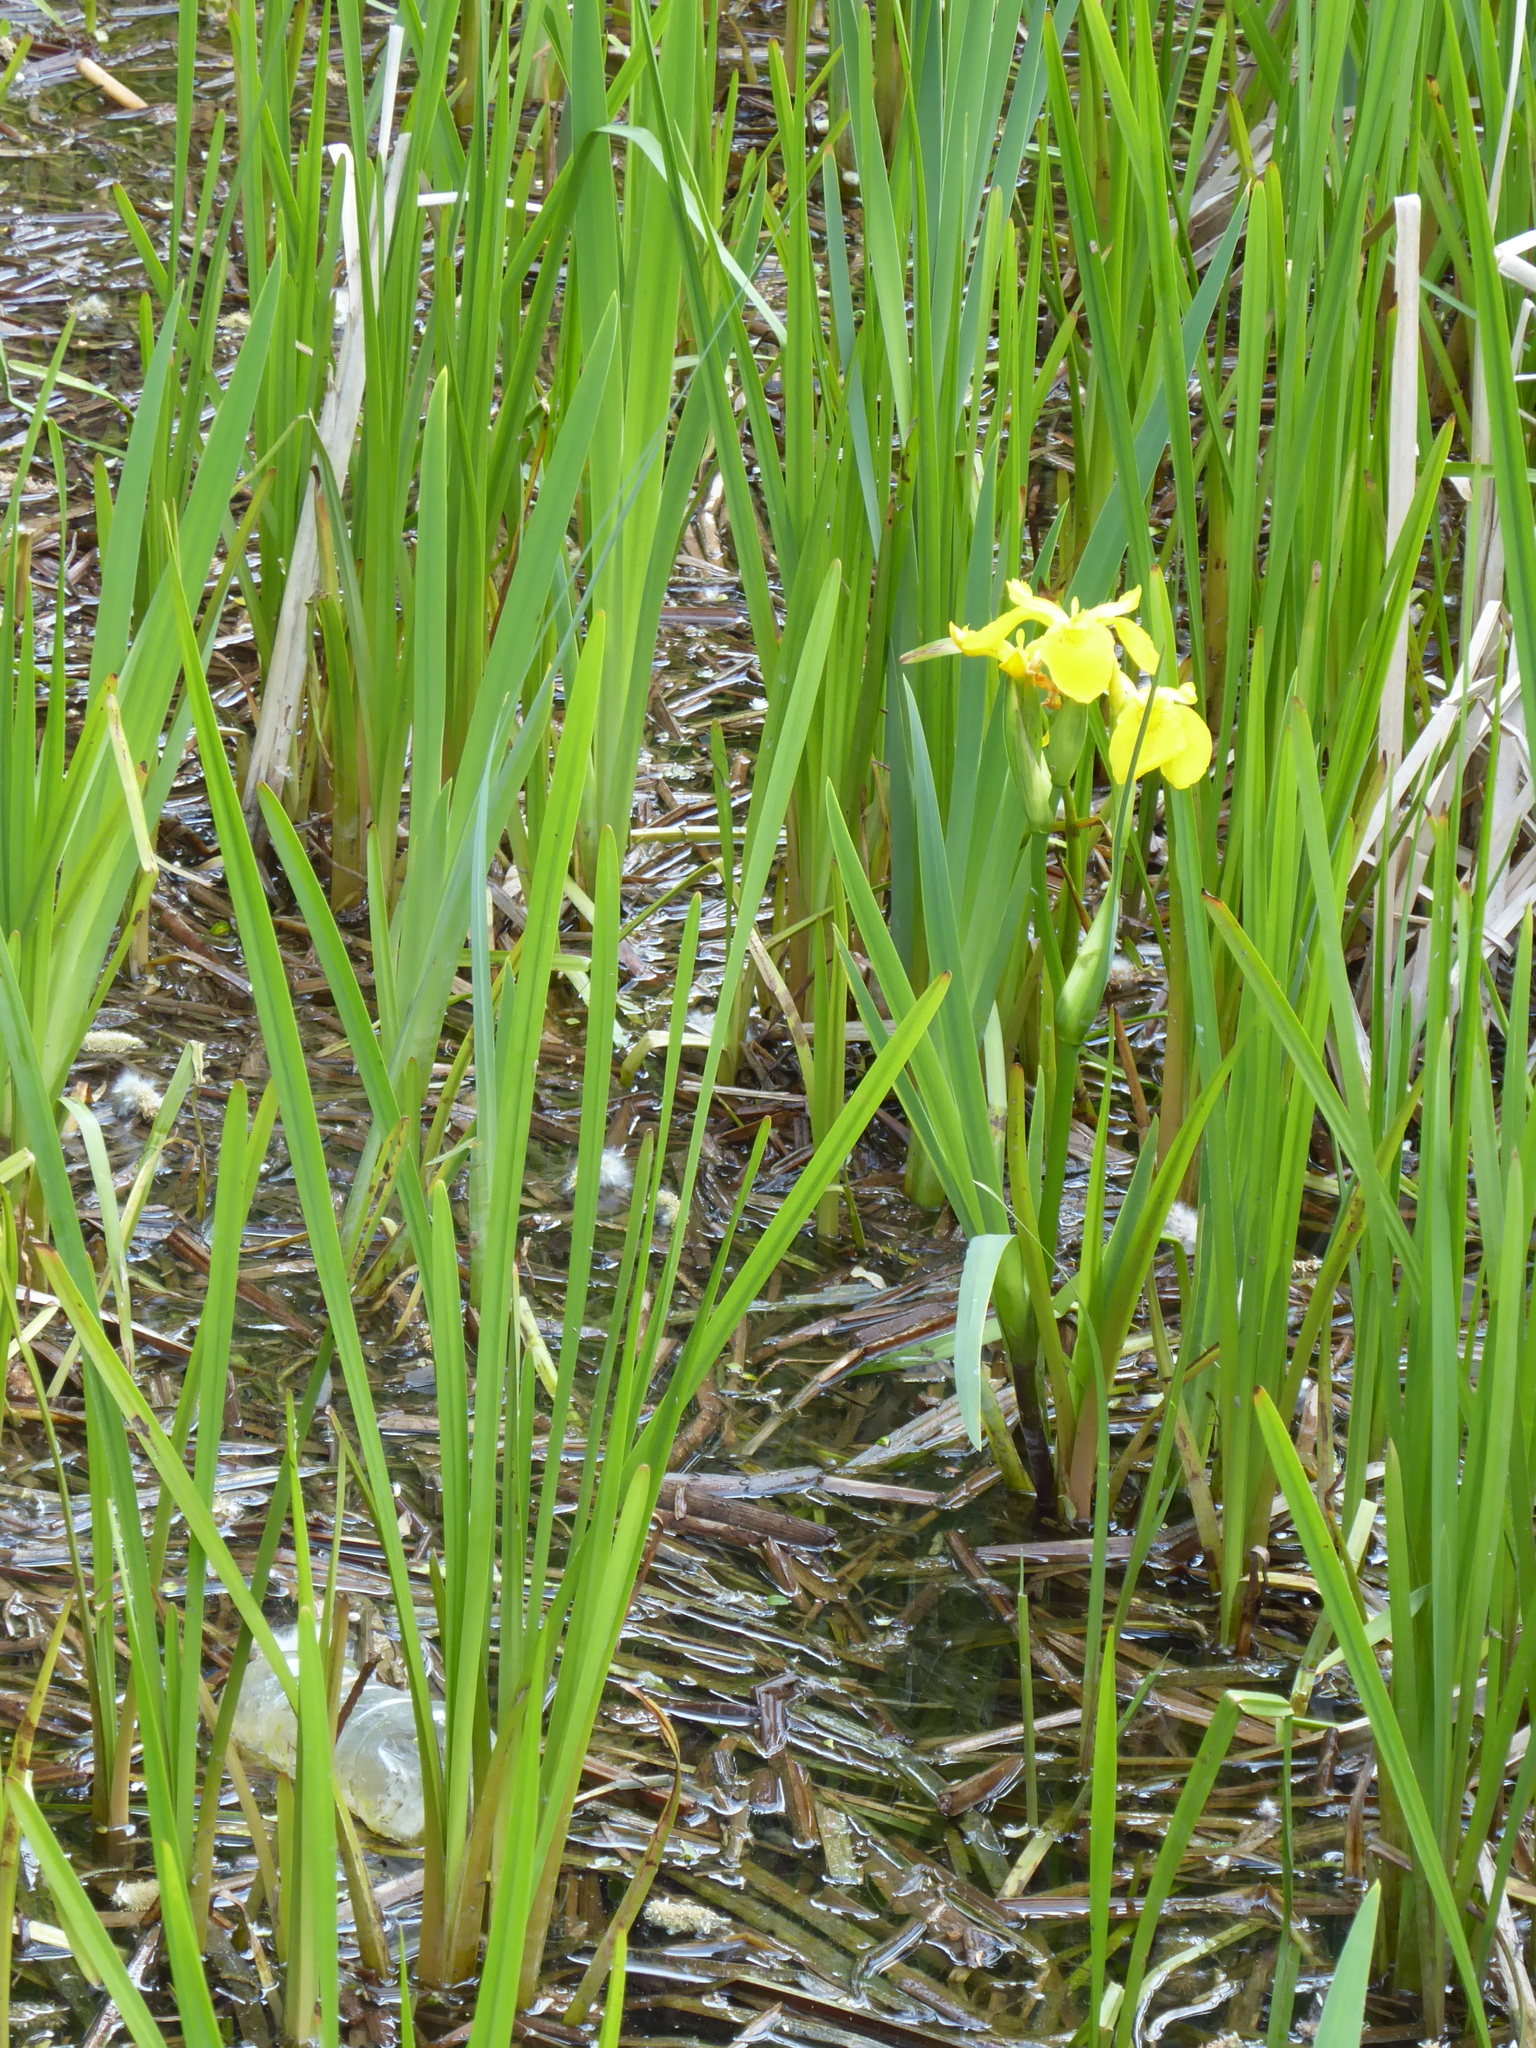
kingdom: Plantae
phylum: Tracheophyta
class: Liliopsida
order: Asparagales
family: Iridaceae
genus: Iris
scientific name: Iris pseudacorus
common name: Yellow flag
